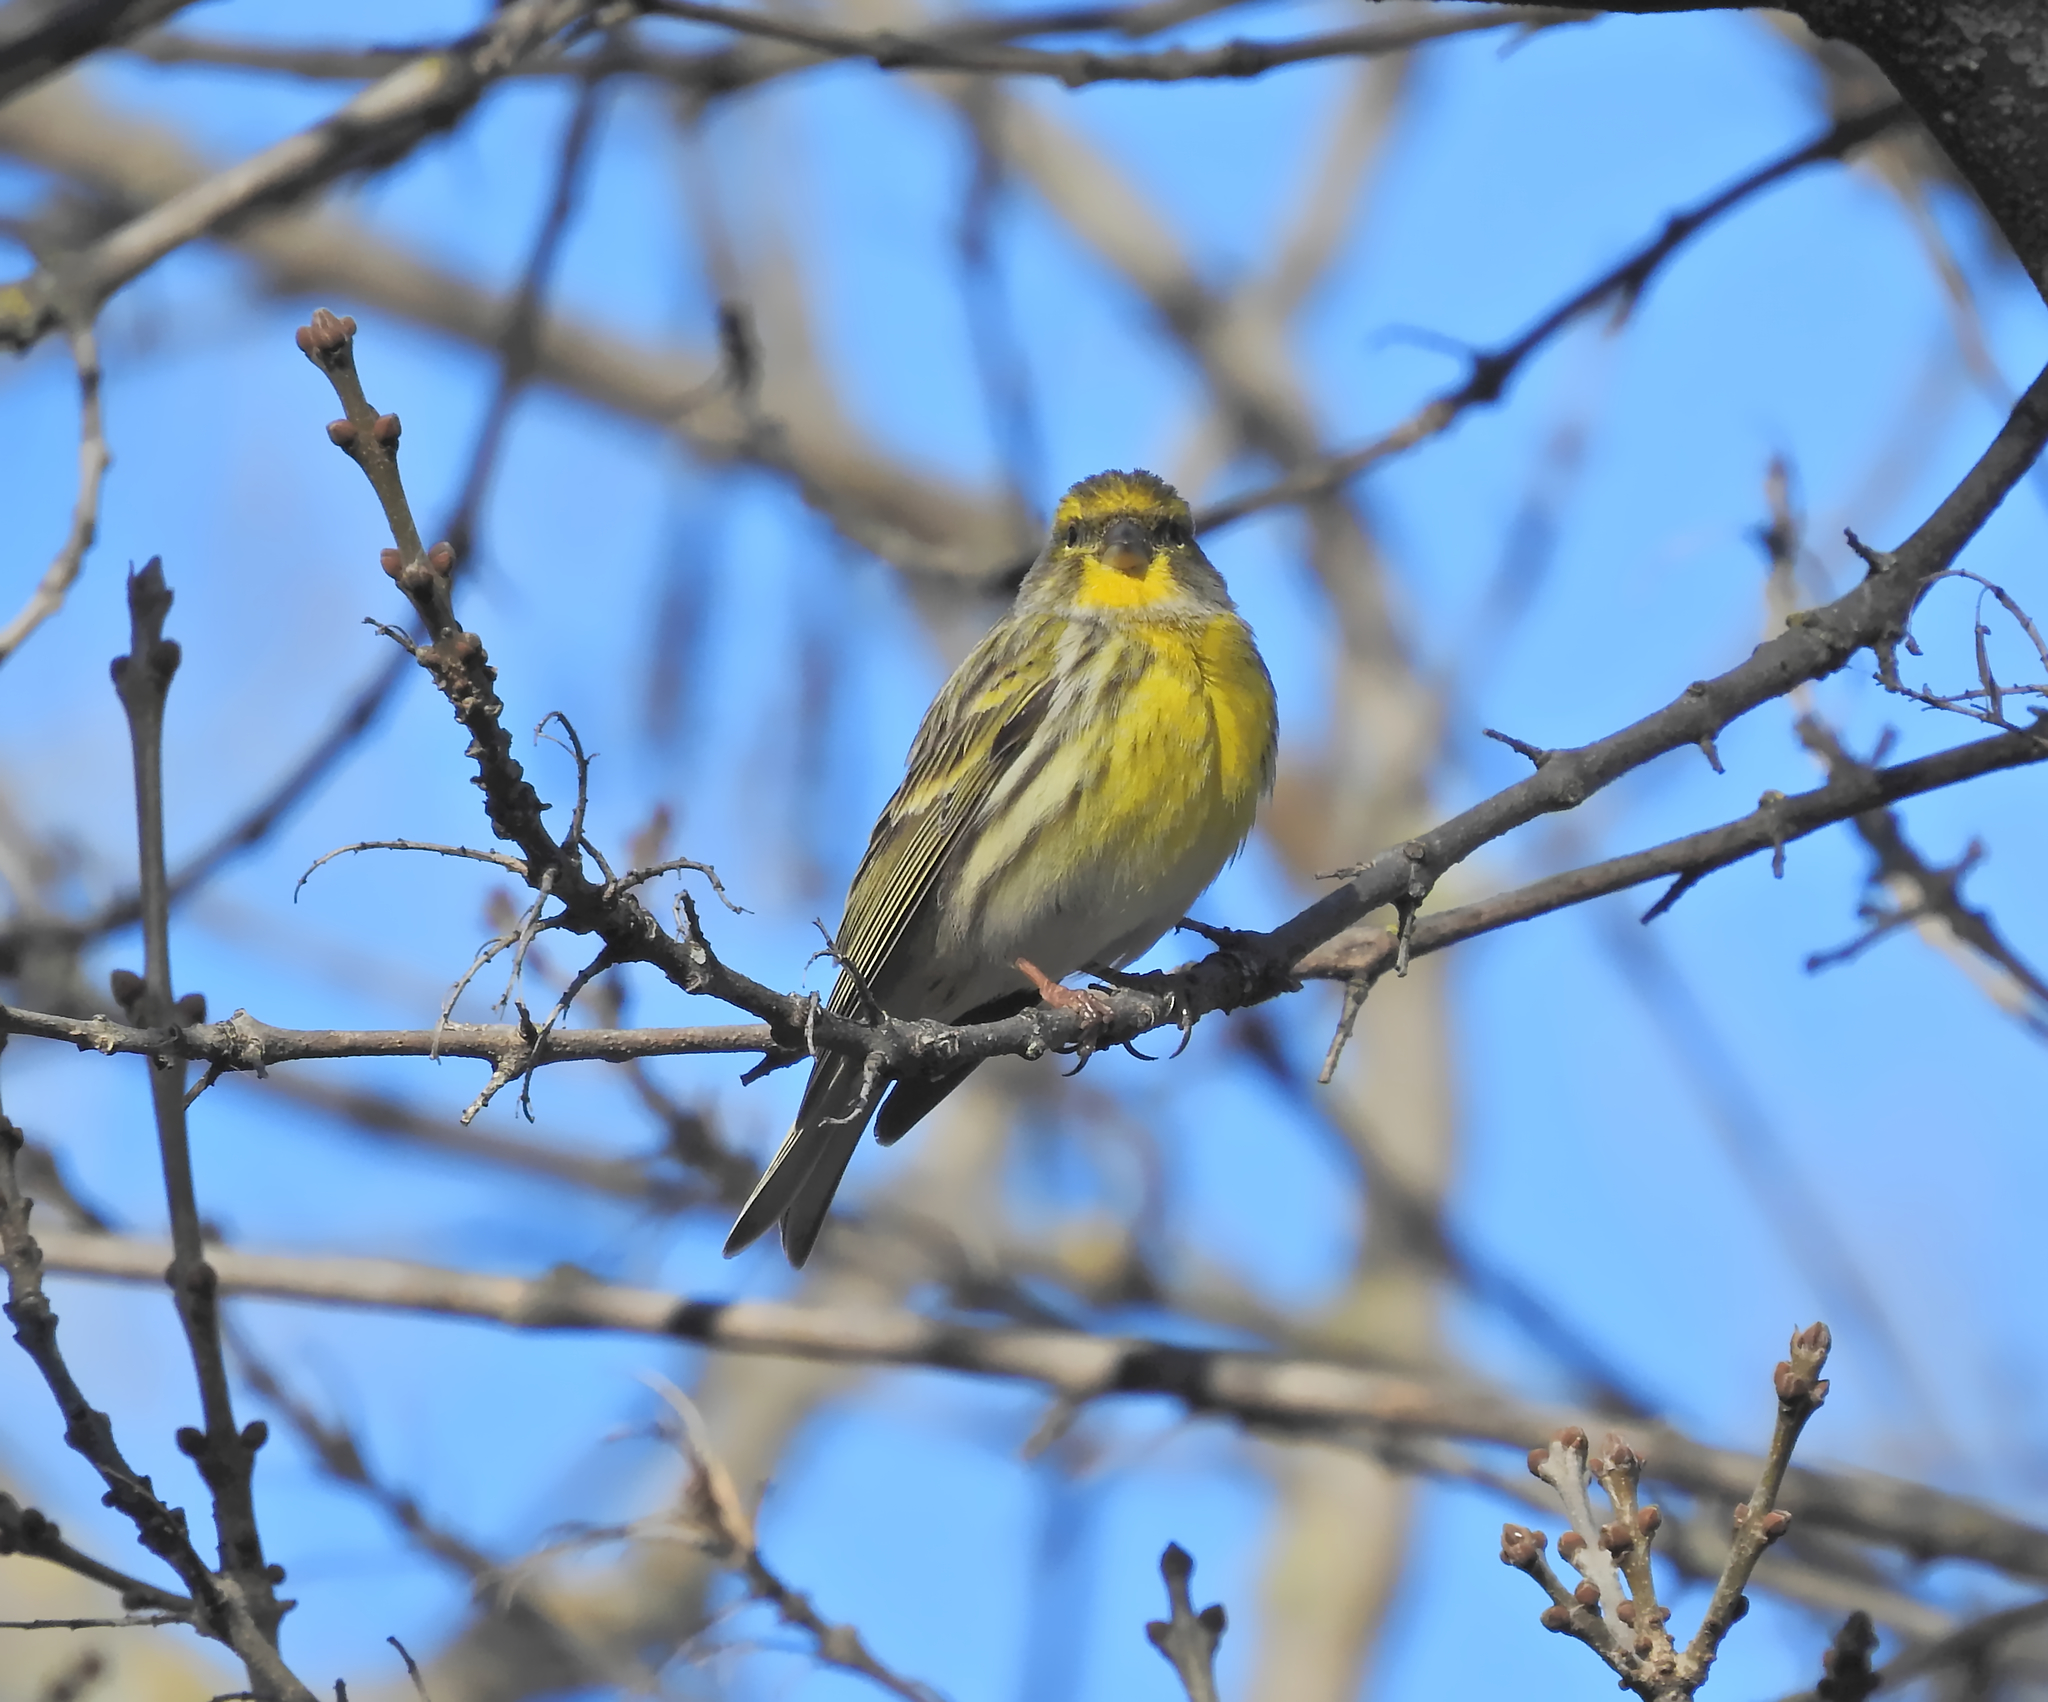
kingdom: Animalia
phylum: Chordata
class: Aves
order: Passeriformes
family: Fringillidae
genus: Serinus
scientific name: Serinus serinus
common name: European serin
